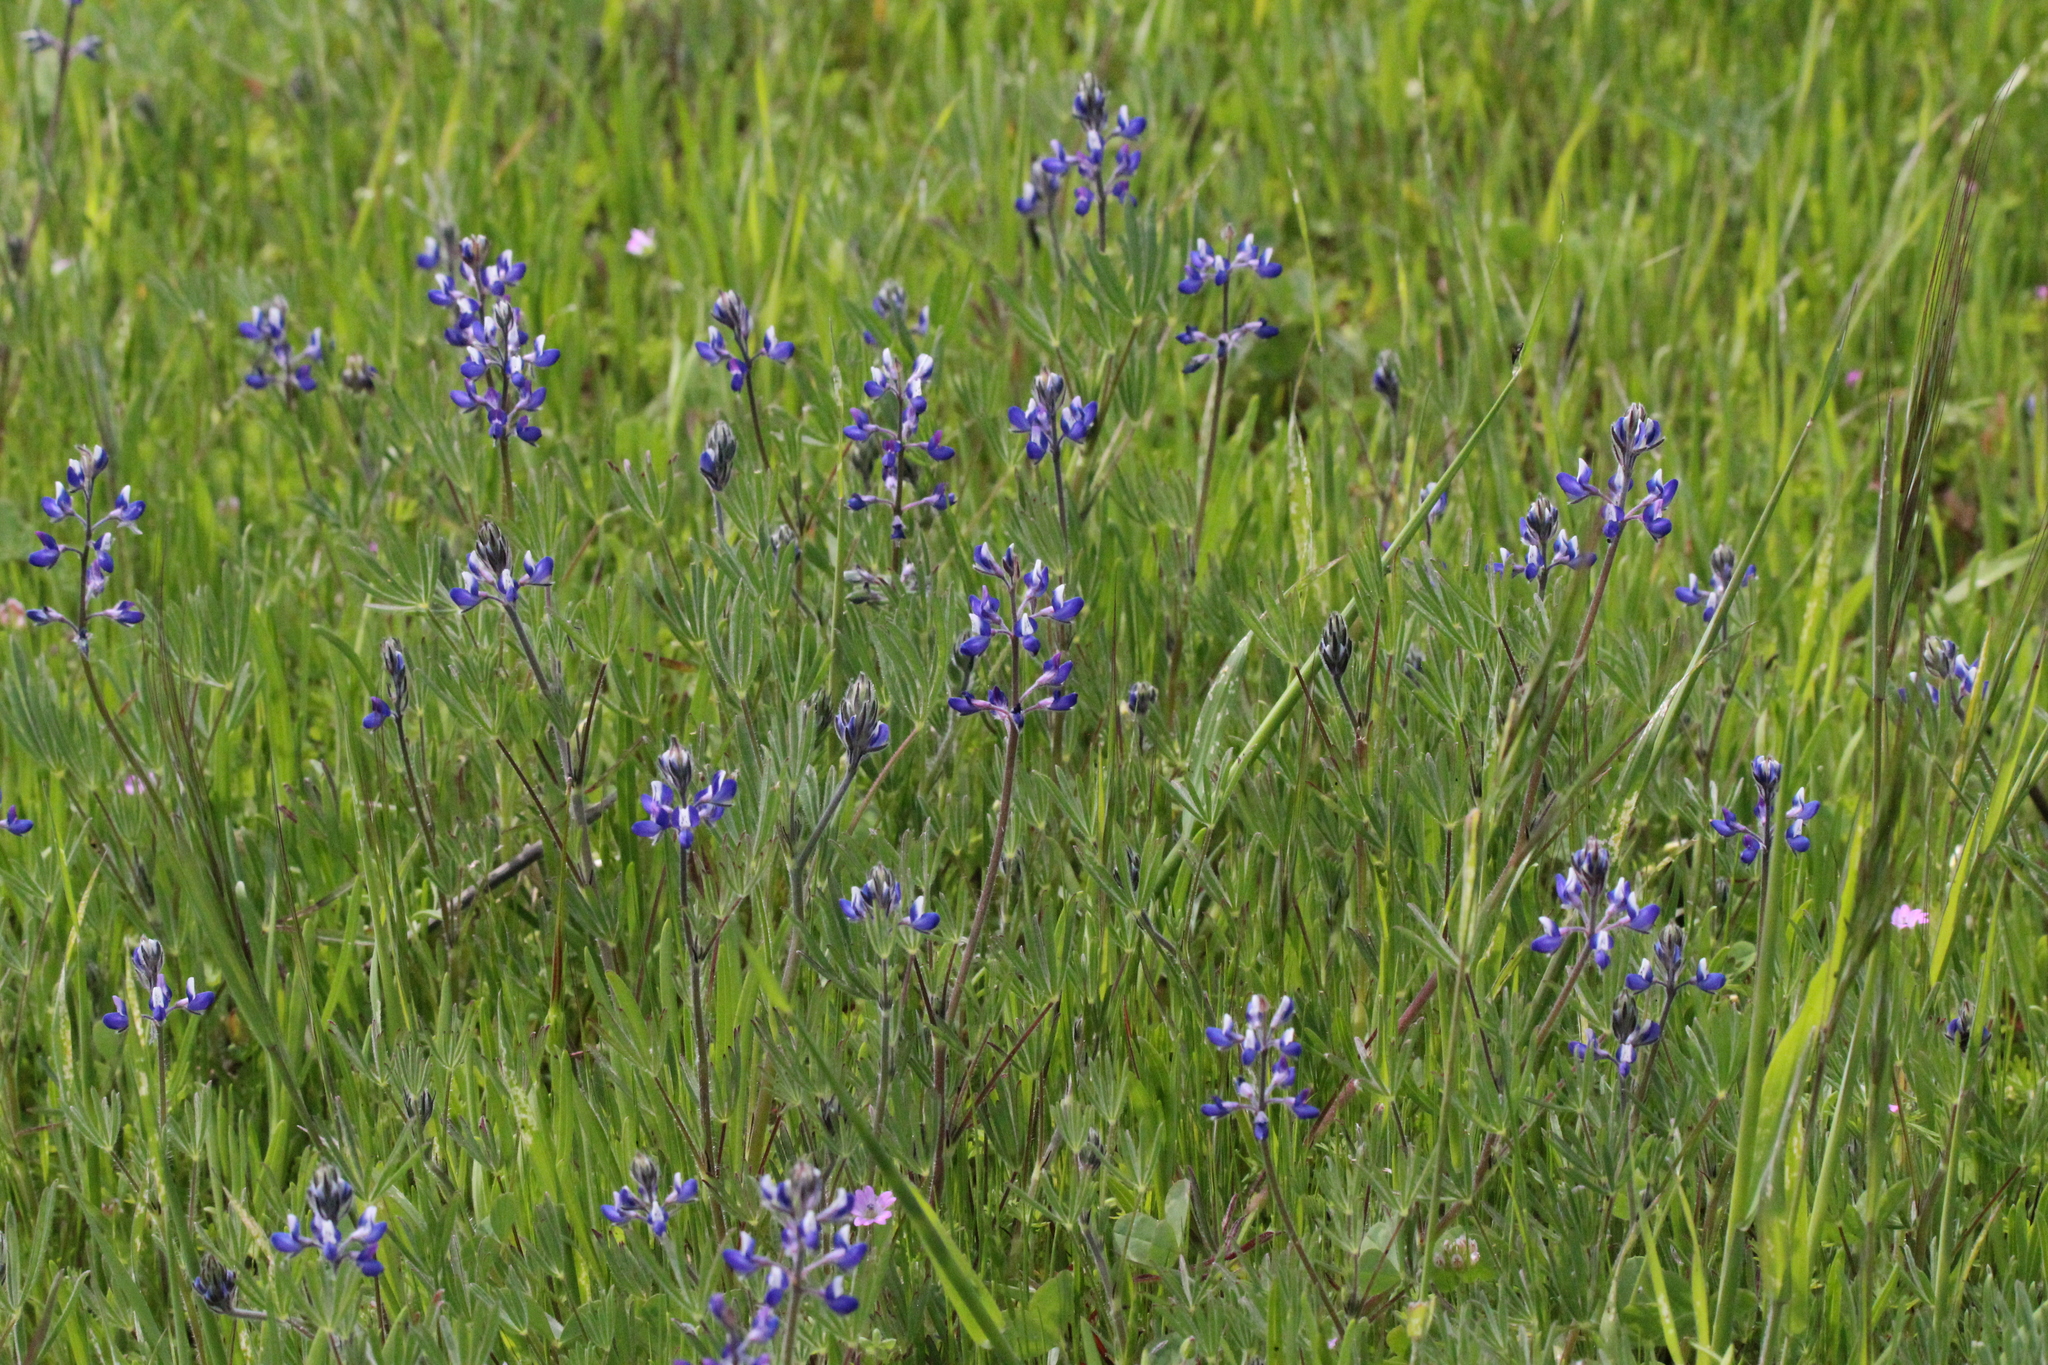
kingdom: Plantae
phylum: Tracheophyta
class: Magnoliopsida
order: Fabales
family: Fabaceae
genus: Lupinus
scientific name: Lupinus bicolor
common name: Miniature lupine
